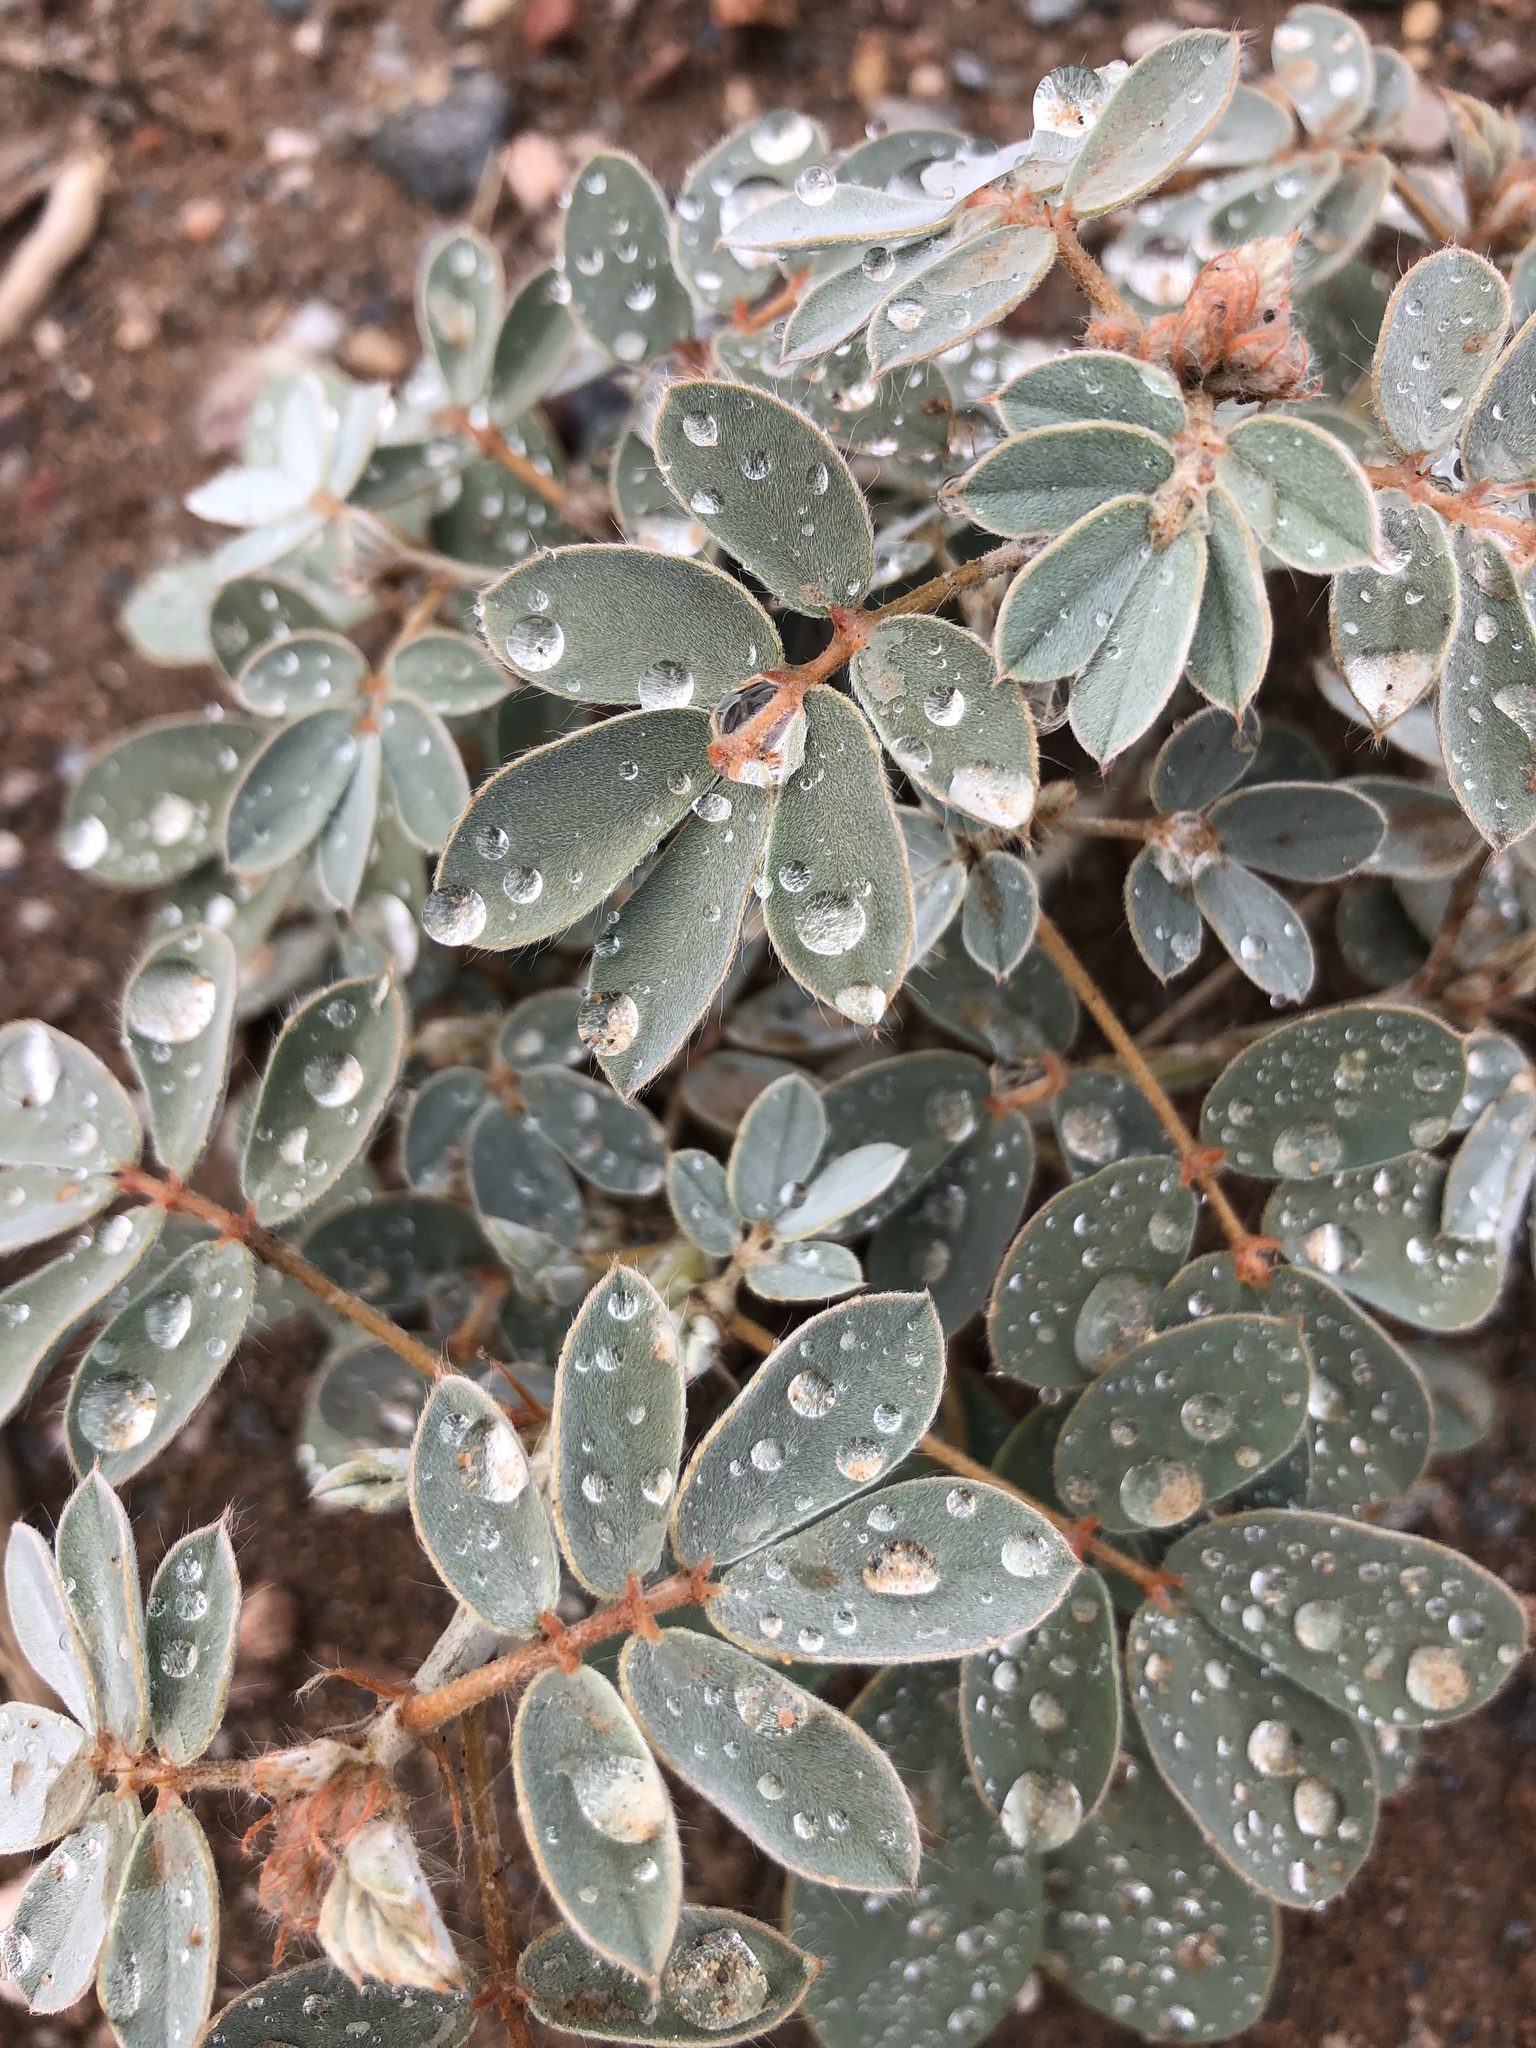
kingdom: Plantae
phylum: Tracheophyta
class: Magnoliopsida
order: Fabales
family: Fabaceae
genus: Senna
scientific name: Senna covesii
